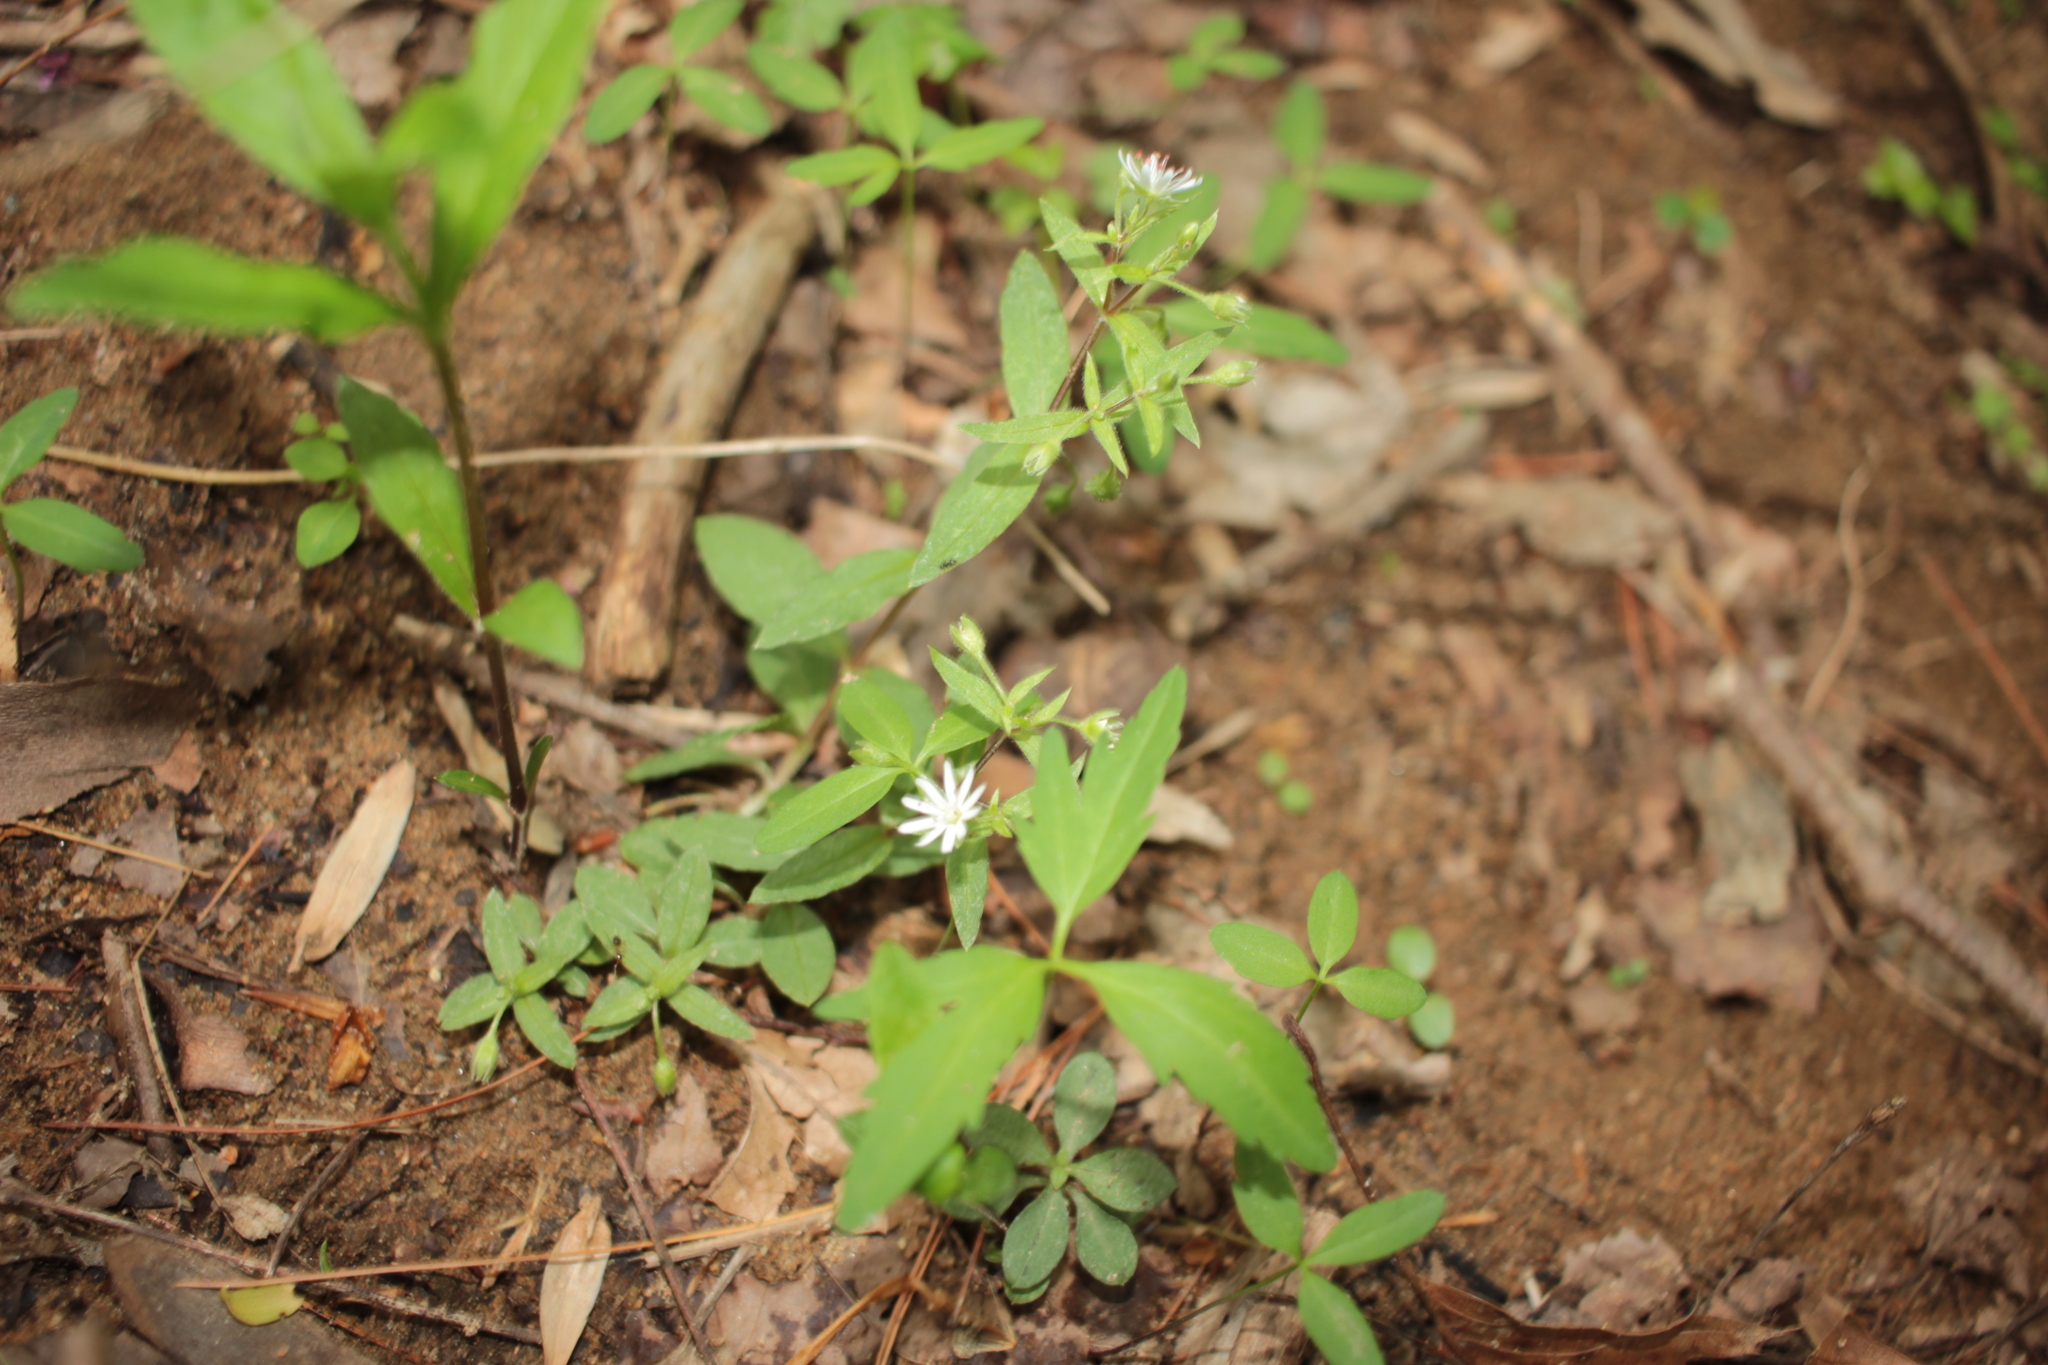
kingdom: Plantae
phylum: Tracheophyta
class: Magnoliopsida
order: Caryophyllales
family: Caryophyllaceae
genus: Stellaria
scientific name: Stellaria pubera
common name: Star chickweed
